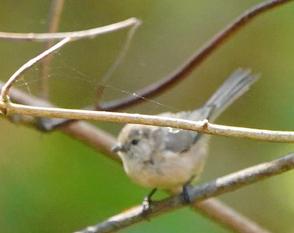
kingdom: Animalia
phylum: Chordata
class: Aves
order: Passeriformes
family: Aegithalidae
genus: Psaltriparus
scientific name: Psaltriparus minimus
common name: American bushtit
